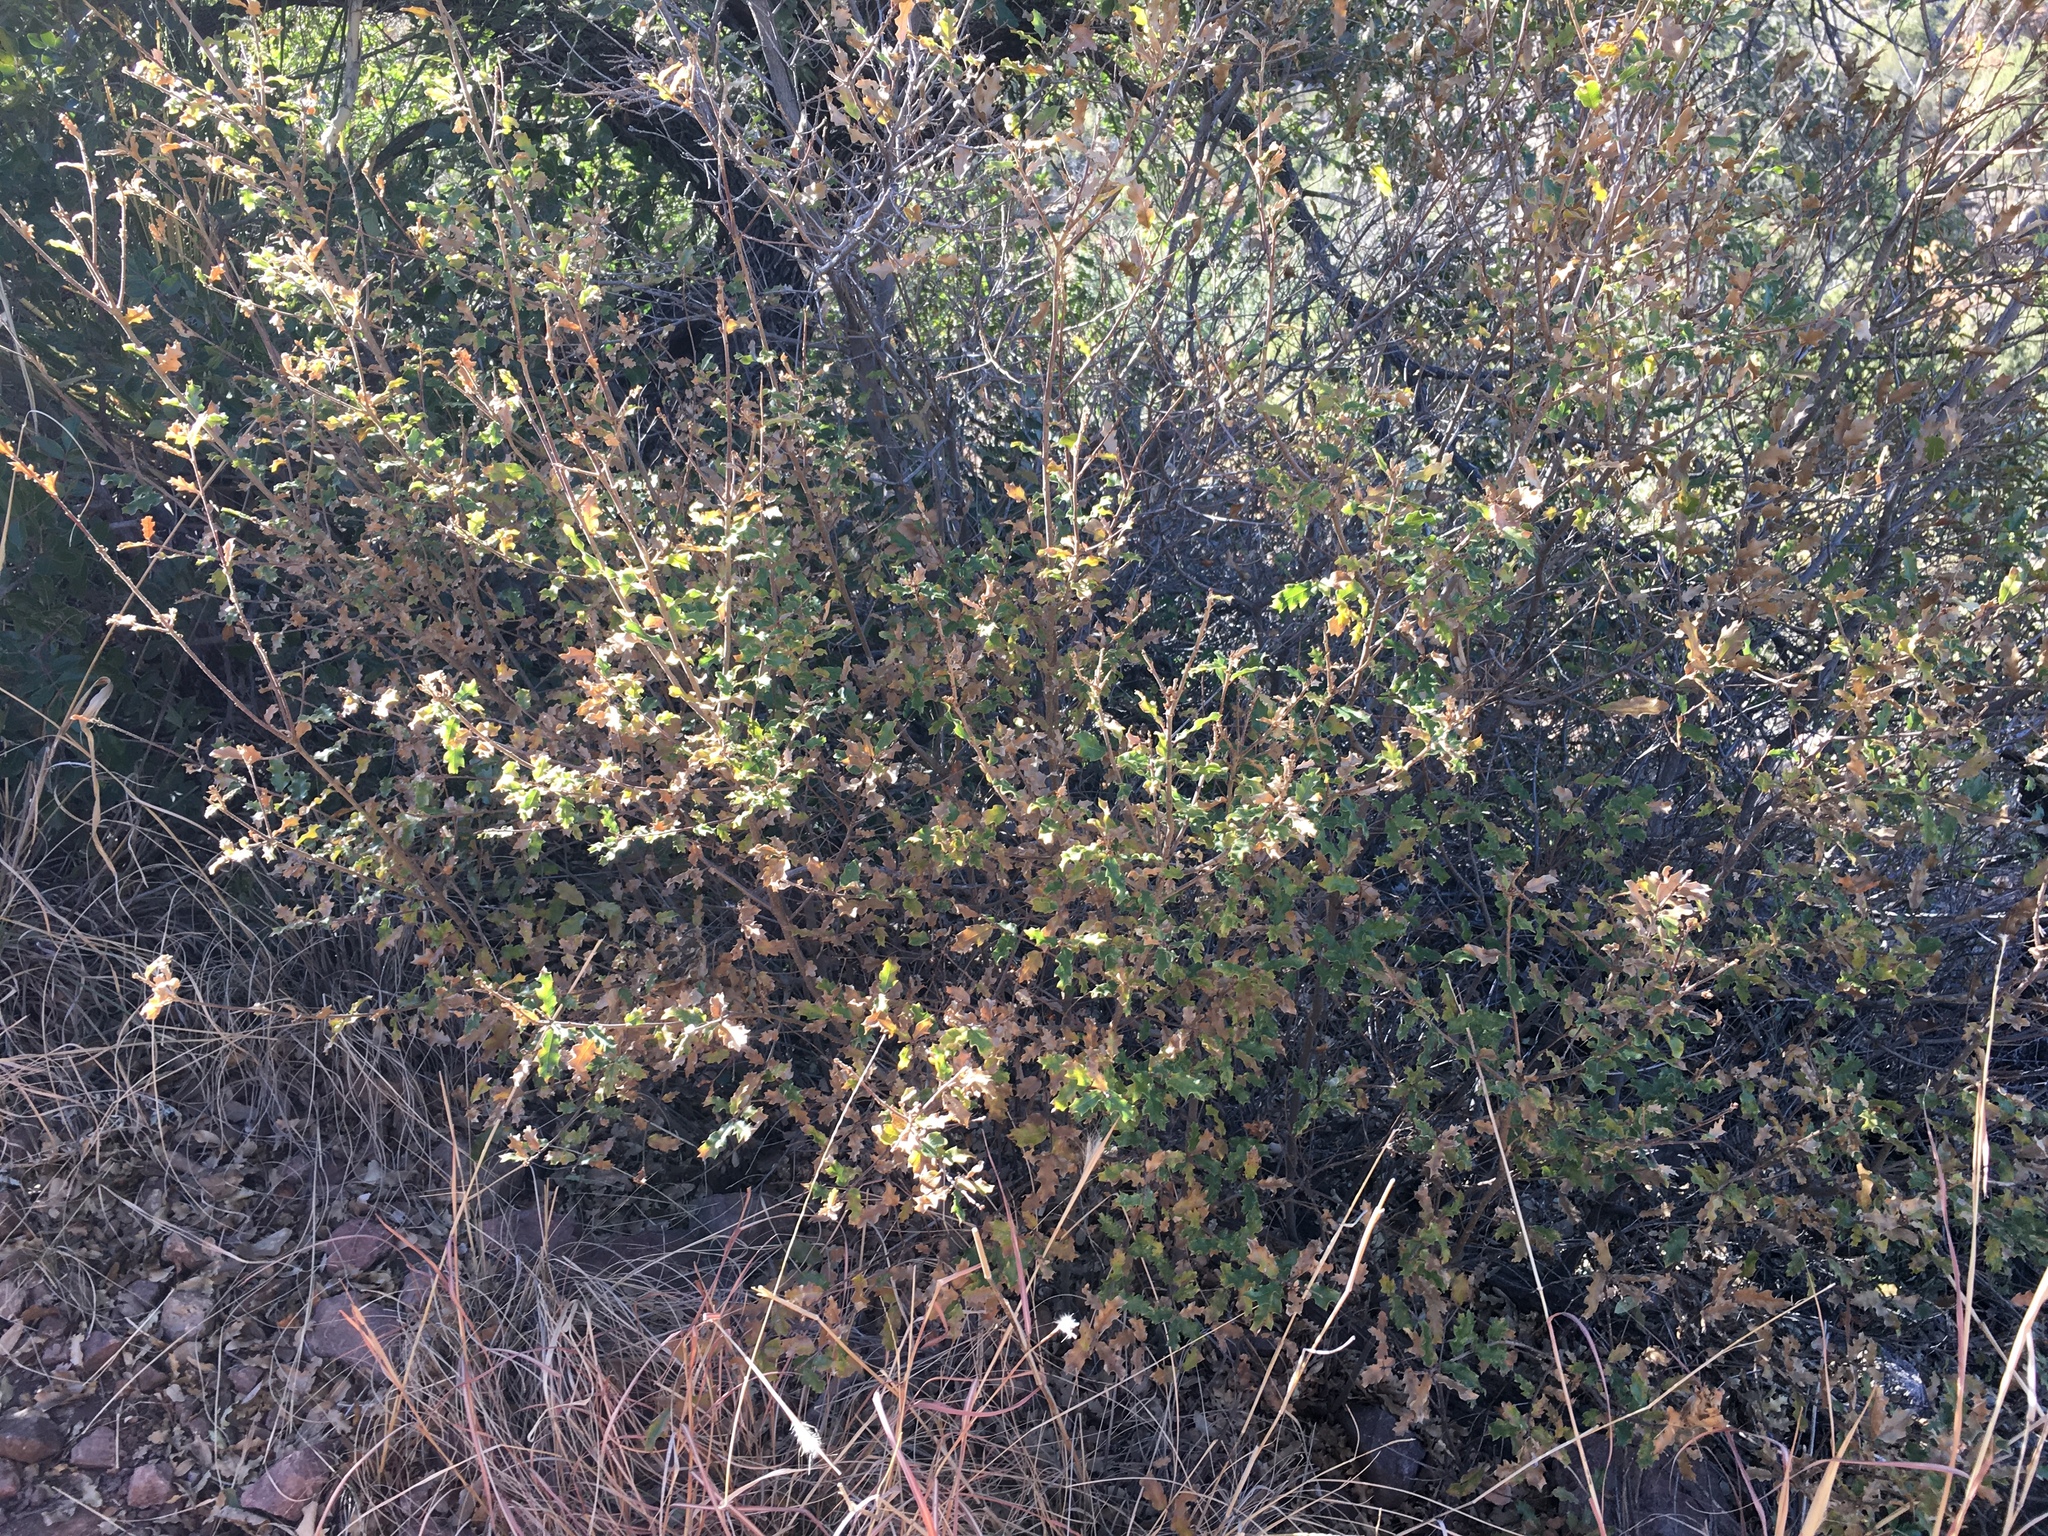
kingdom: Plantae
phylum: Tracheophyta
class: Magnoliopsida
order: Fagales
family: Fagaceae
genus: Quercus
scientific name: Quercus pungens
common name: Pungent oak
